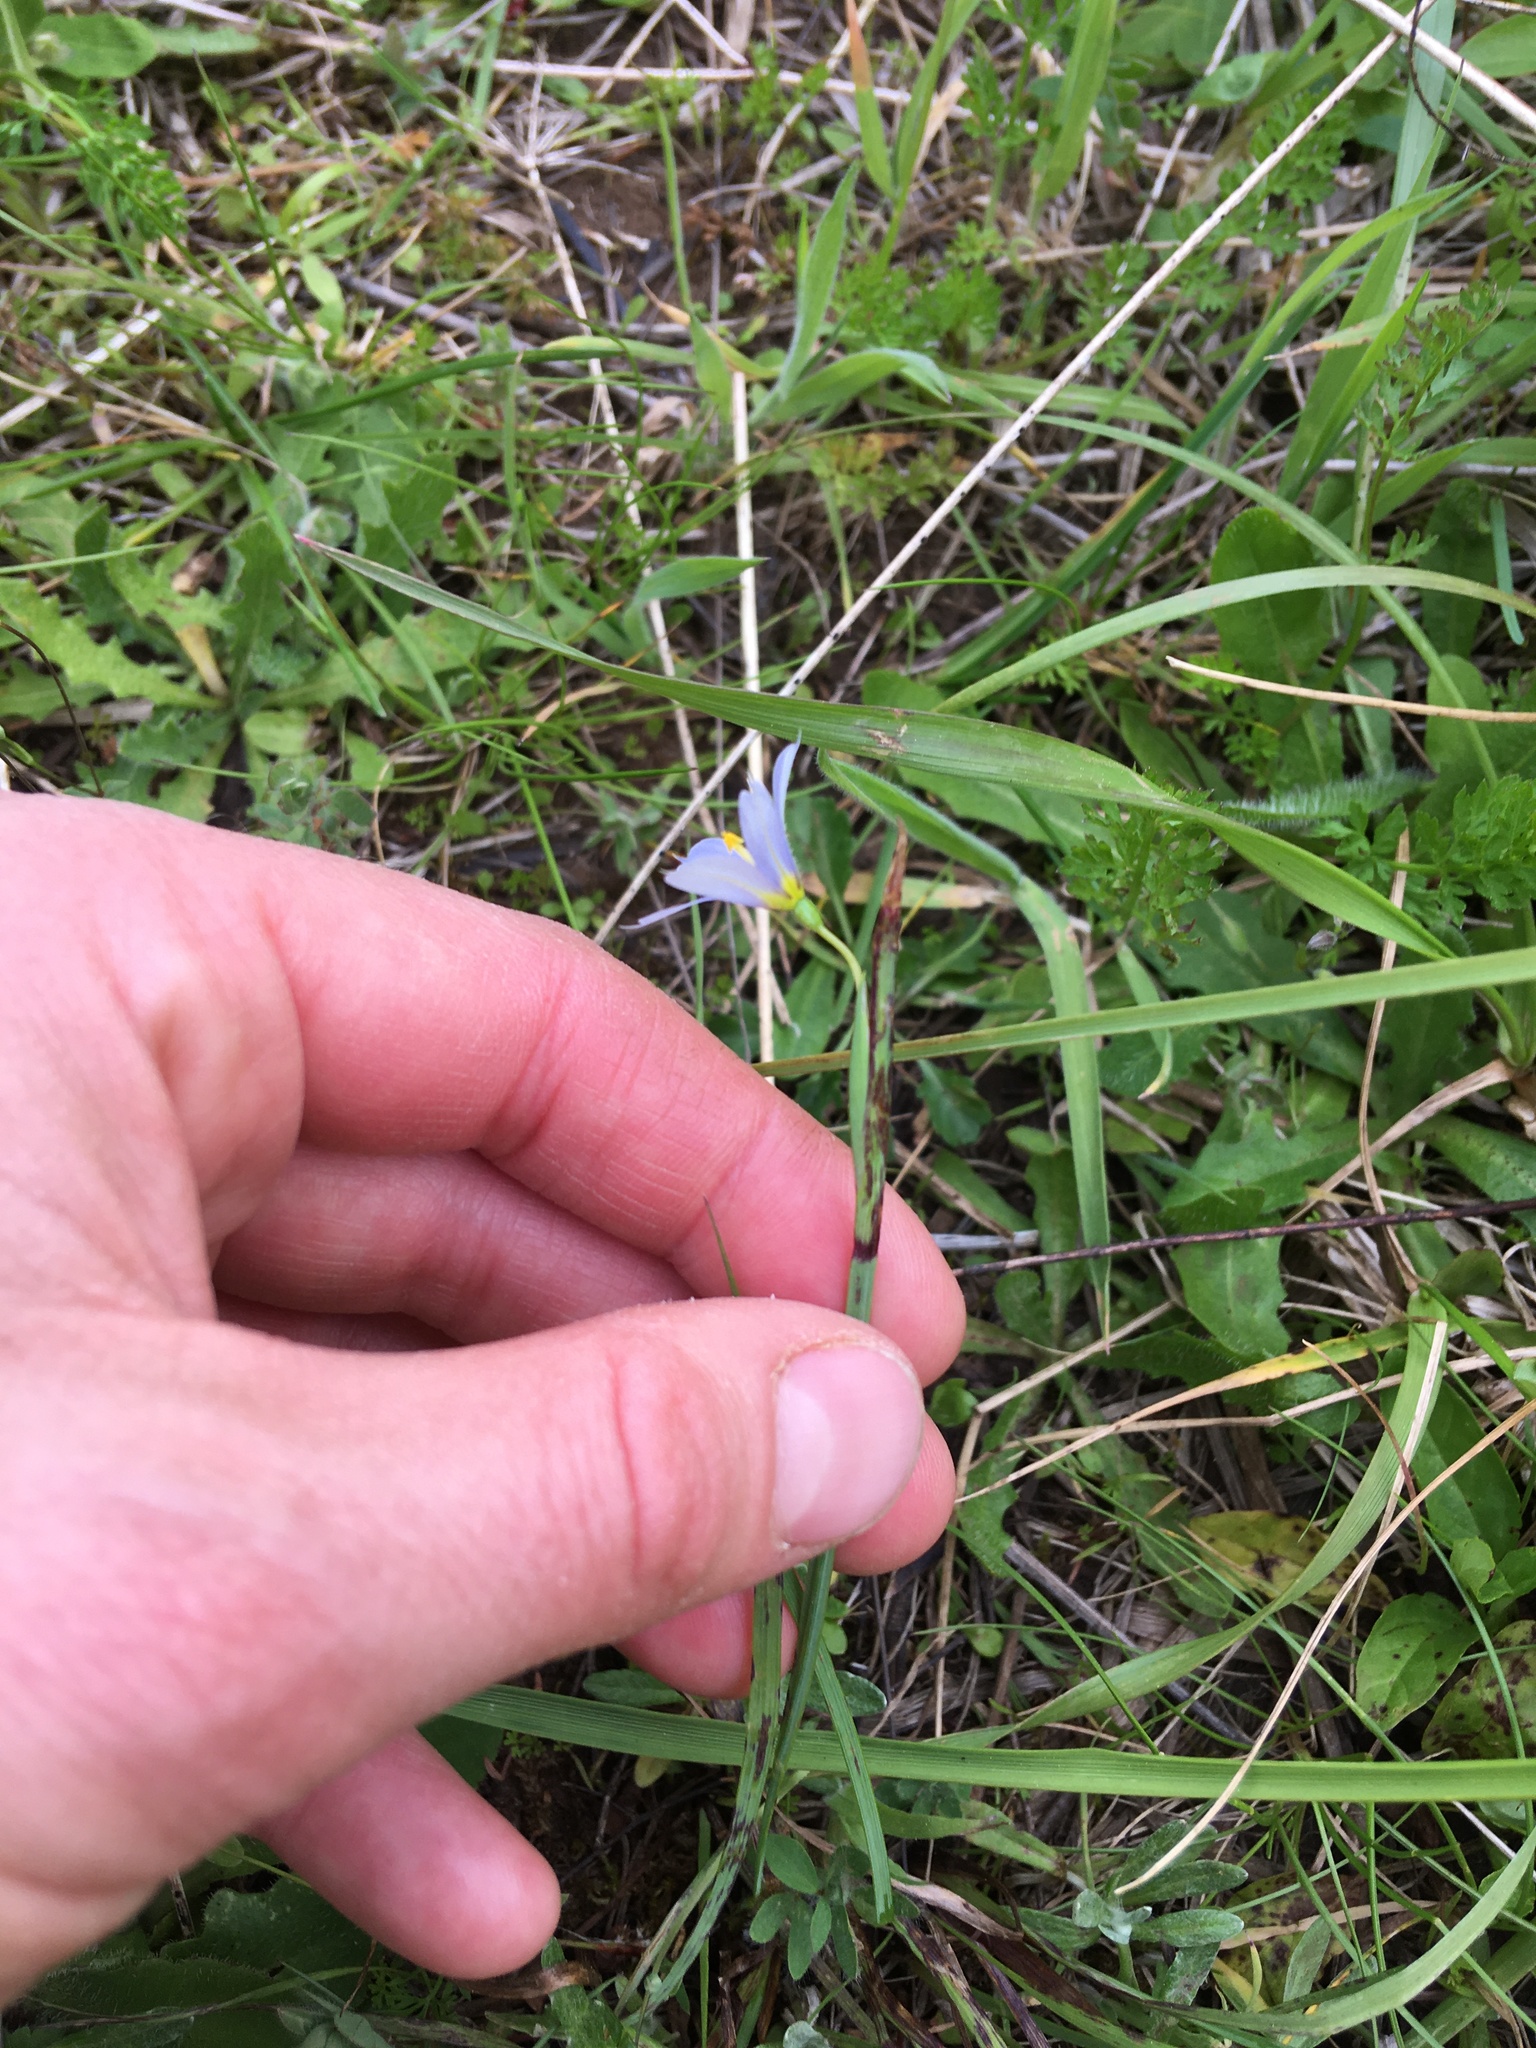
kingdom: Plantae
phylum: Tracheophyta
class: Liliopsida
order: Asparagales
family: Iridaceae
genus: Sisyrinchium
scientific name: Sisyrinchium idahoense
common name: Idaho blue-eyed-grass
